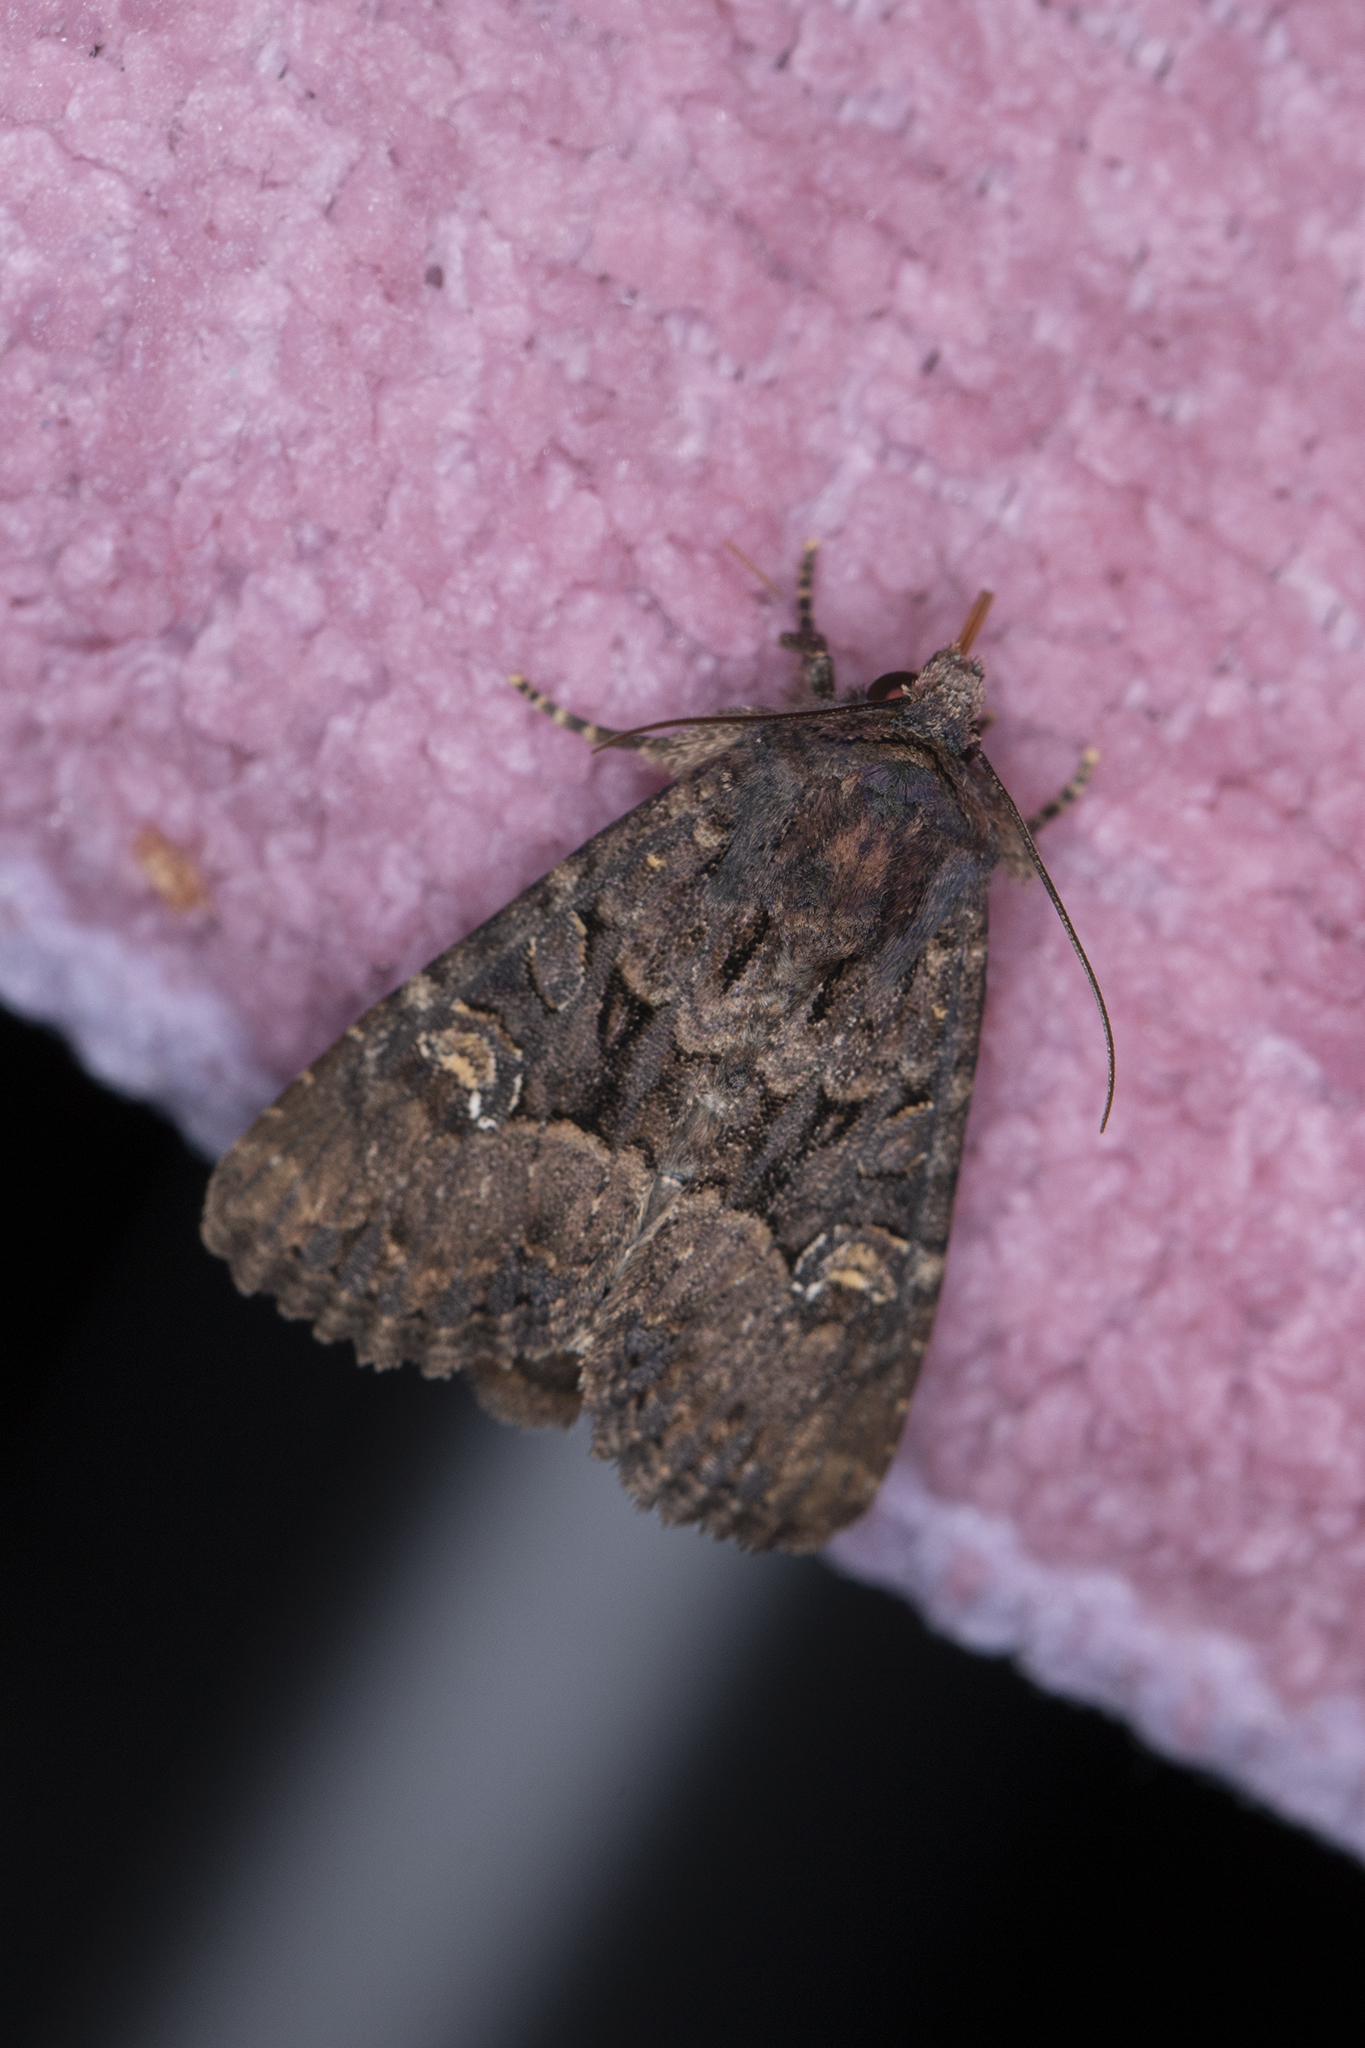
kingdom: Animalia
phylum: Arthropoda
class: Insecta
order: Lepidoptera
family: Noctuidae
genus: Mesapamea
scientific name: Mesapamea
